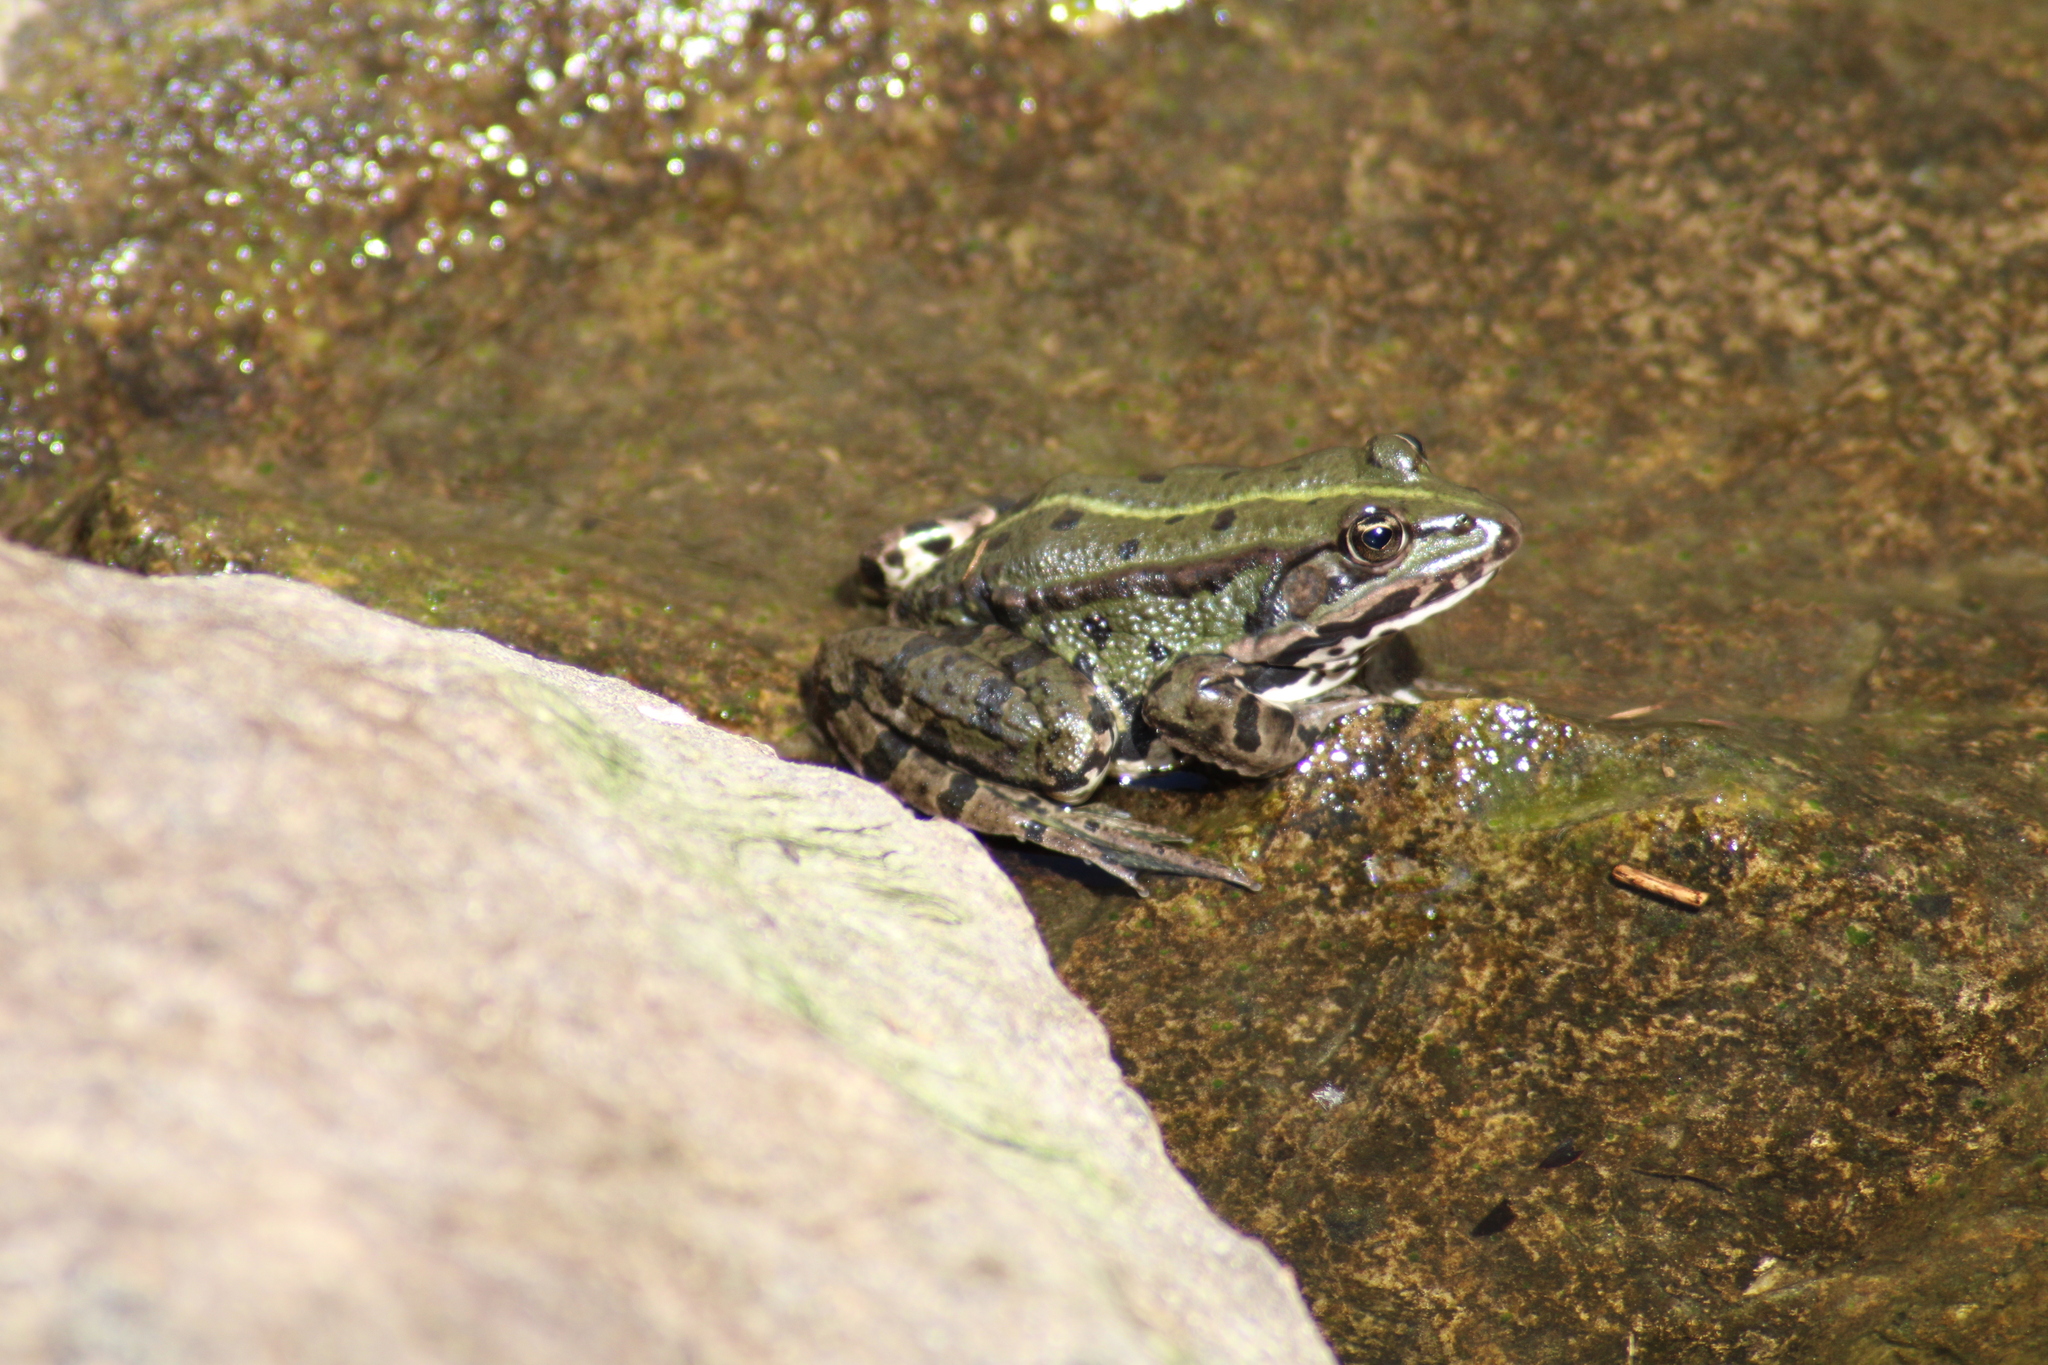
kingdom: Animalia
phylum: Chordata
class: Amphibia
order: Anura
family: Ranidae
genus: Pelophylax
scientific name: Pelophylax
